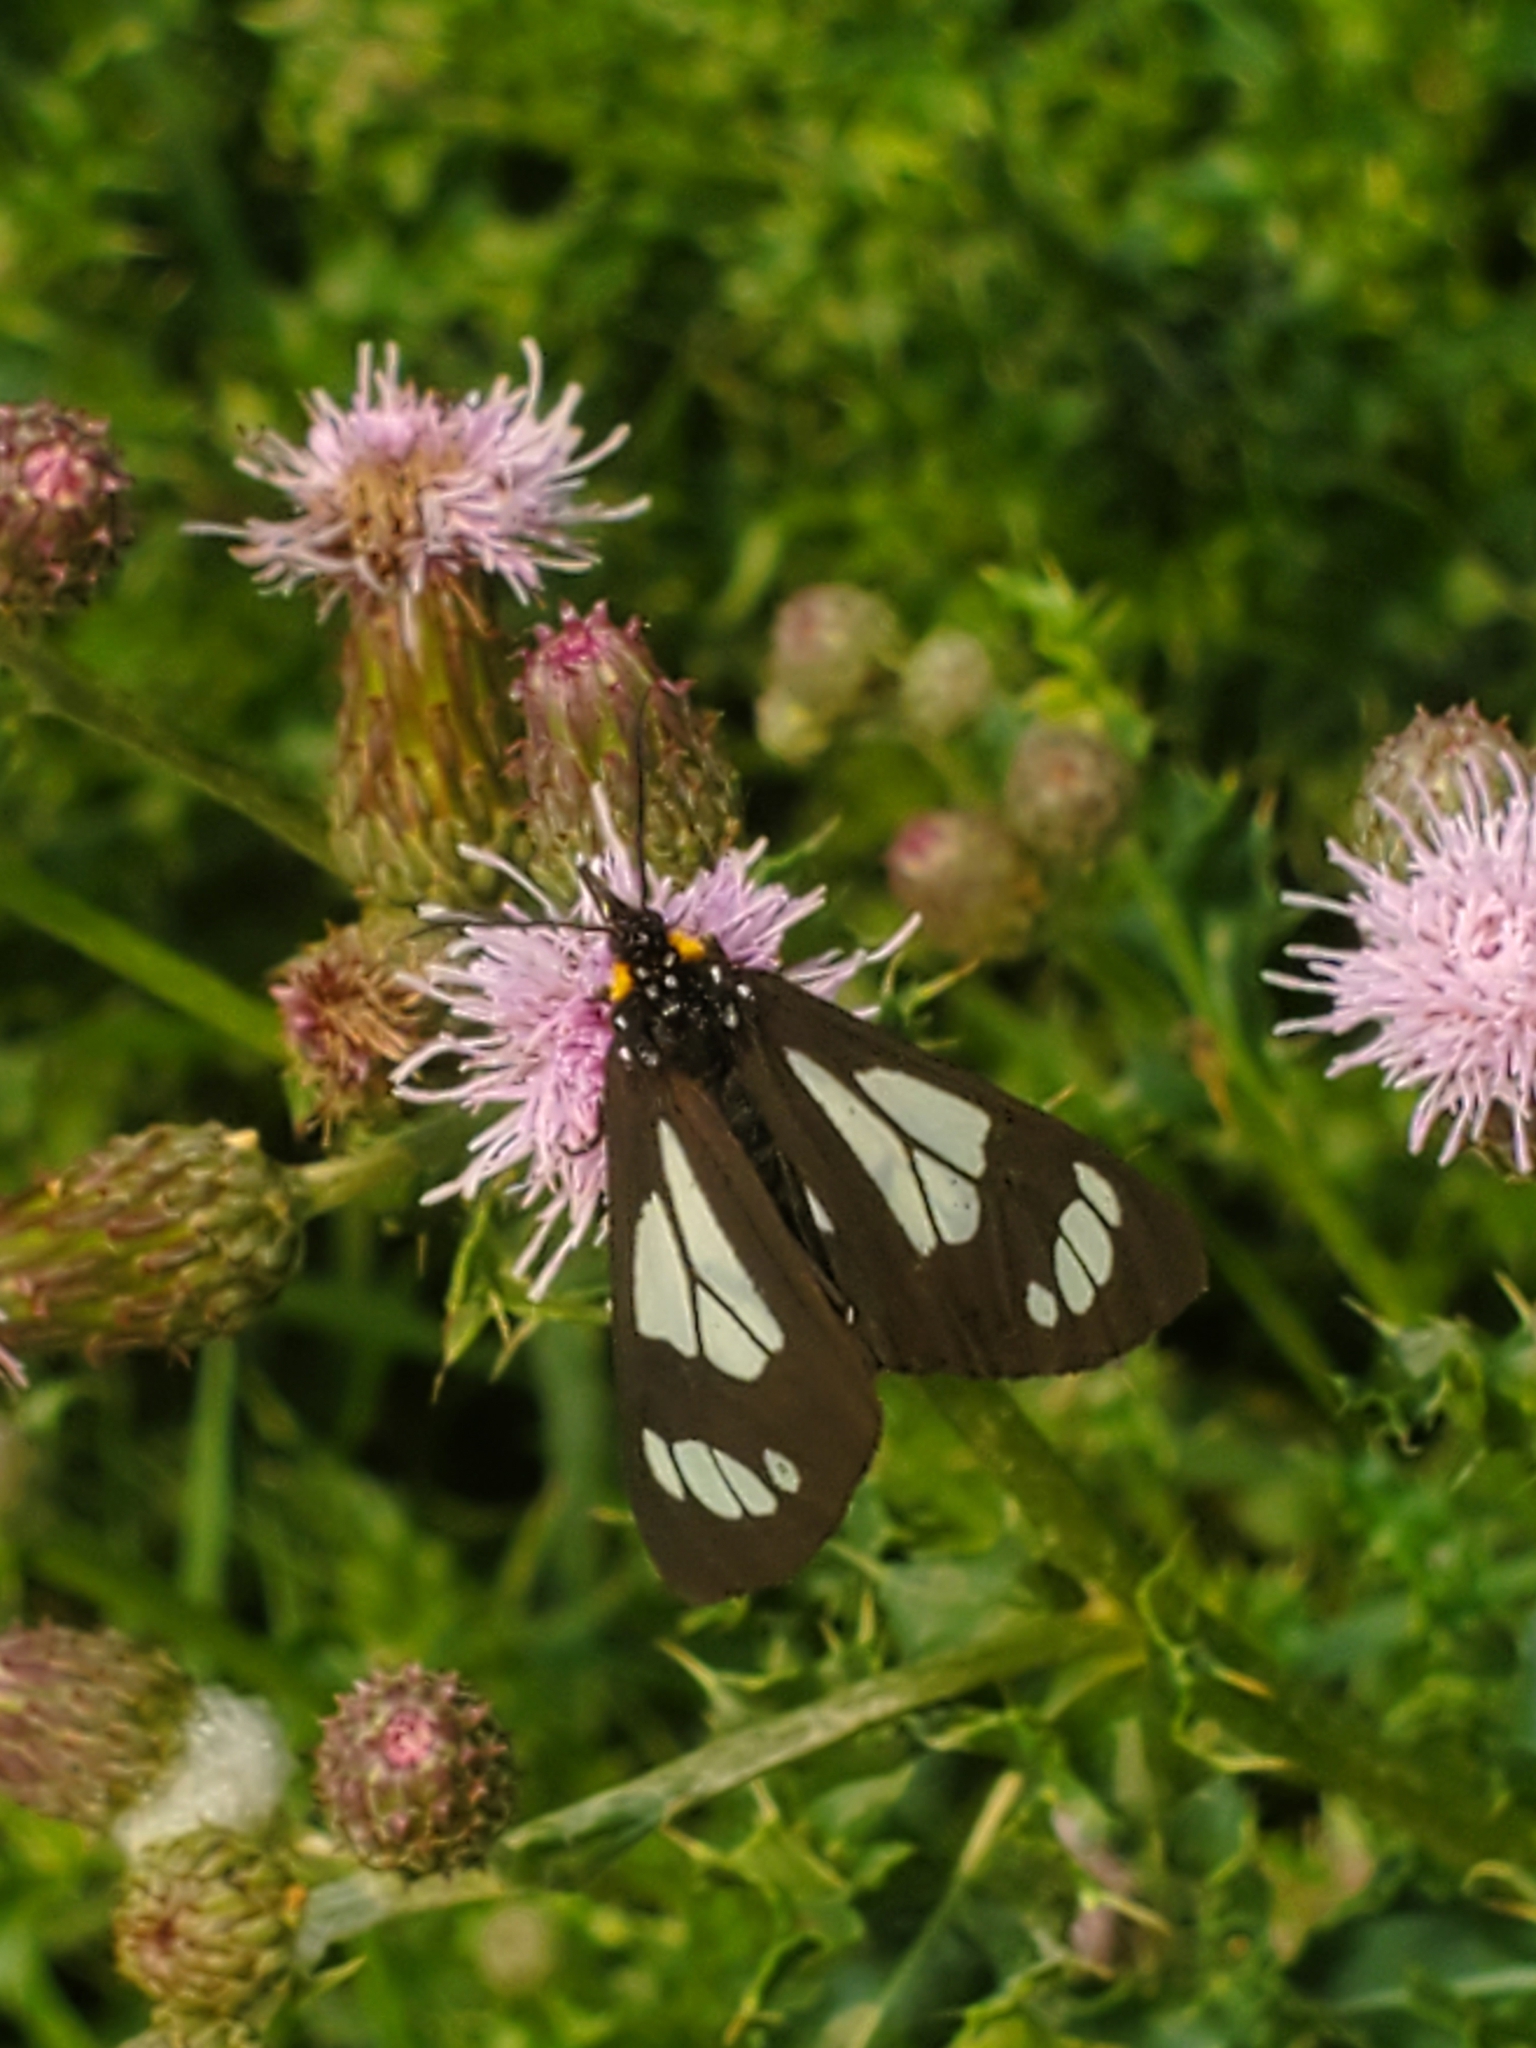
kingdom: Animalia
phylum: Arthropoda
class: Insecta
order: Lepidoptera
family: Erebidae
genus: Gnophaela
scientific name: Gnophaela vermiculata
